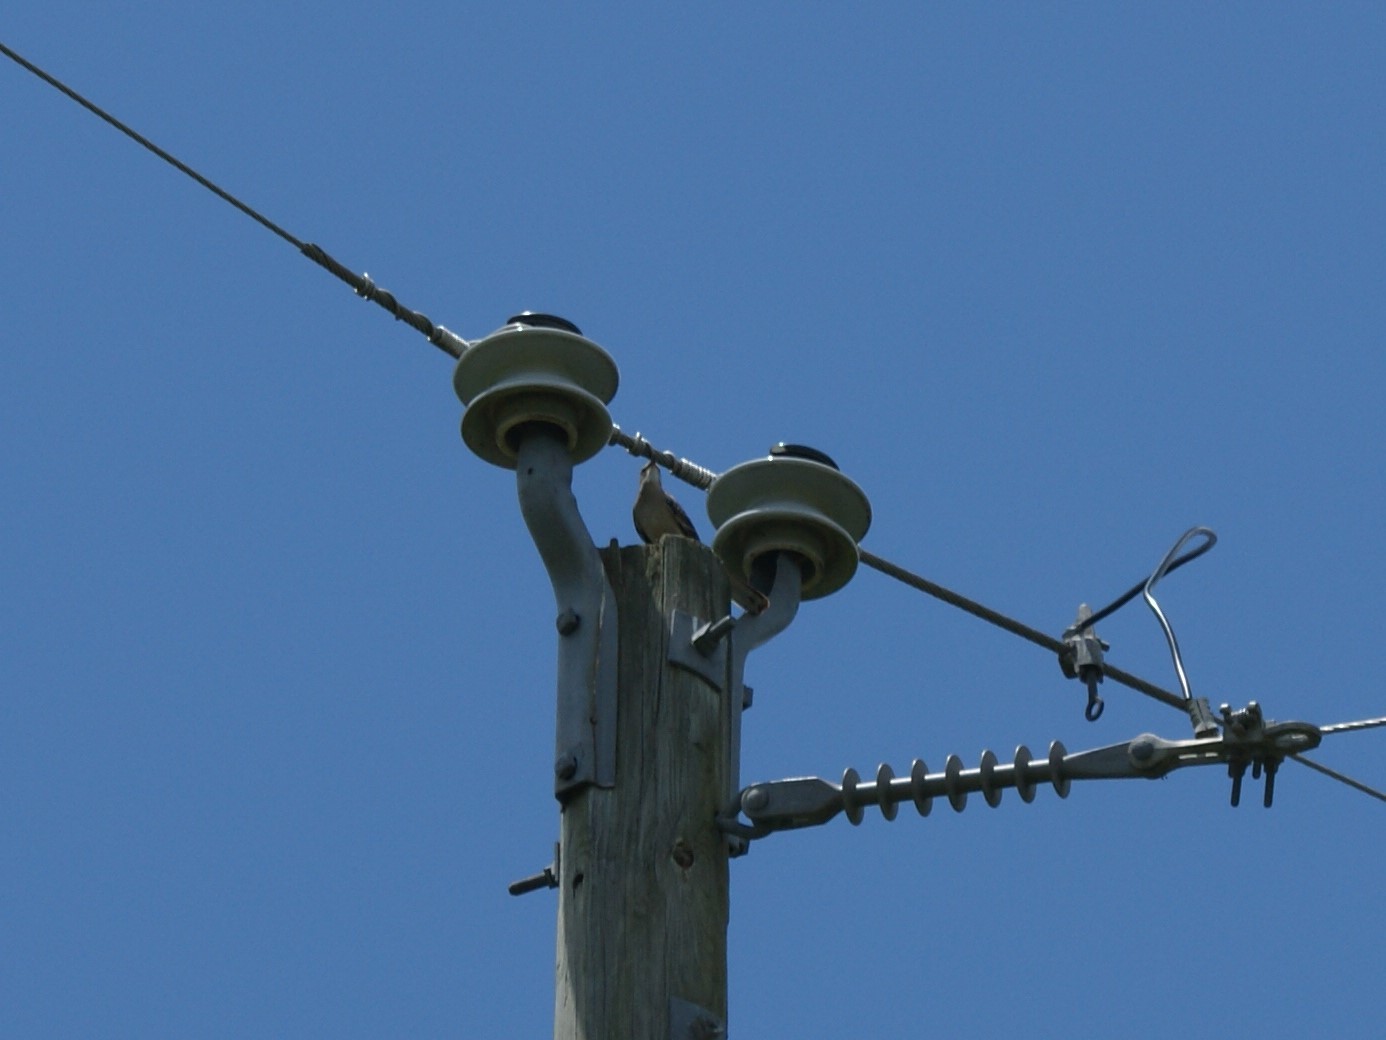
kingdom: Animalia
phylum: Chordata
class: Aves
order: Passeriformes
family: Mimidae
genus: Mimus
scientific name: Mimus polyglottos
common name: Northern mockingbird
